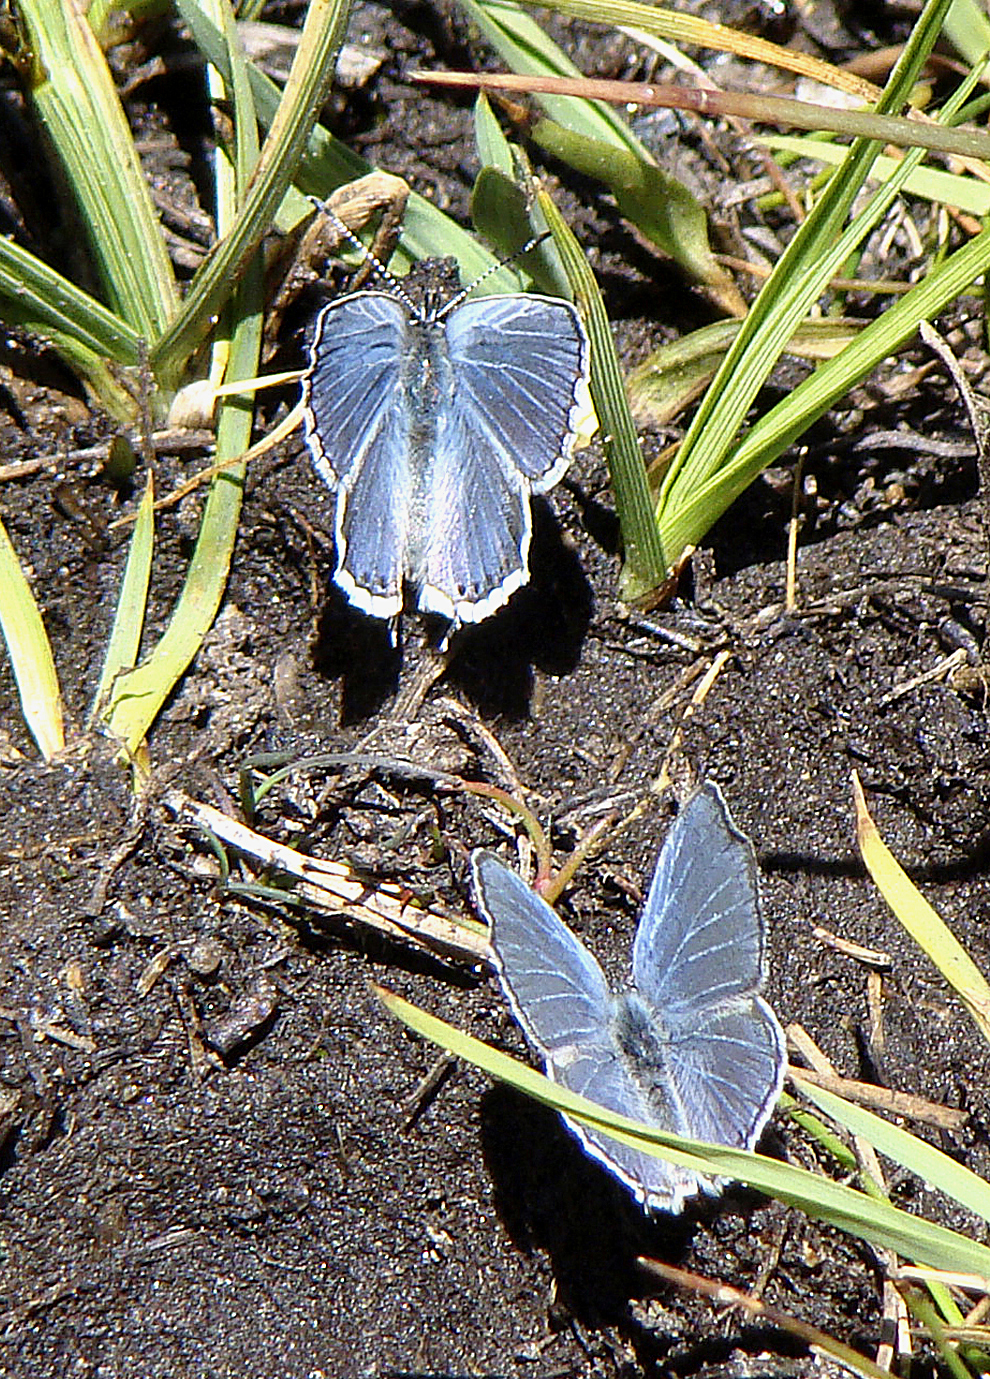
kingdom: Animalia
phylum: Arthropoda
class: Insecta
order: Lepidoptera
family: Lycaenidae
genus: Elkalyce
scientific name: Elkalyce amyntula
